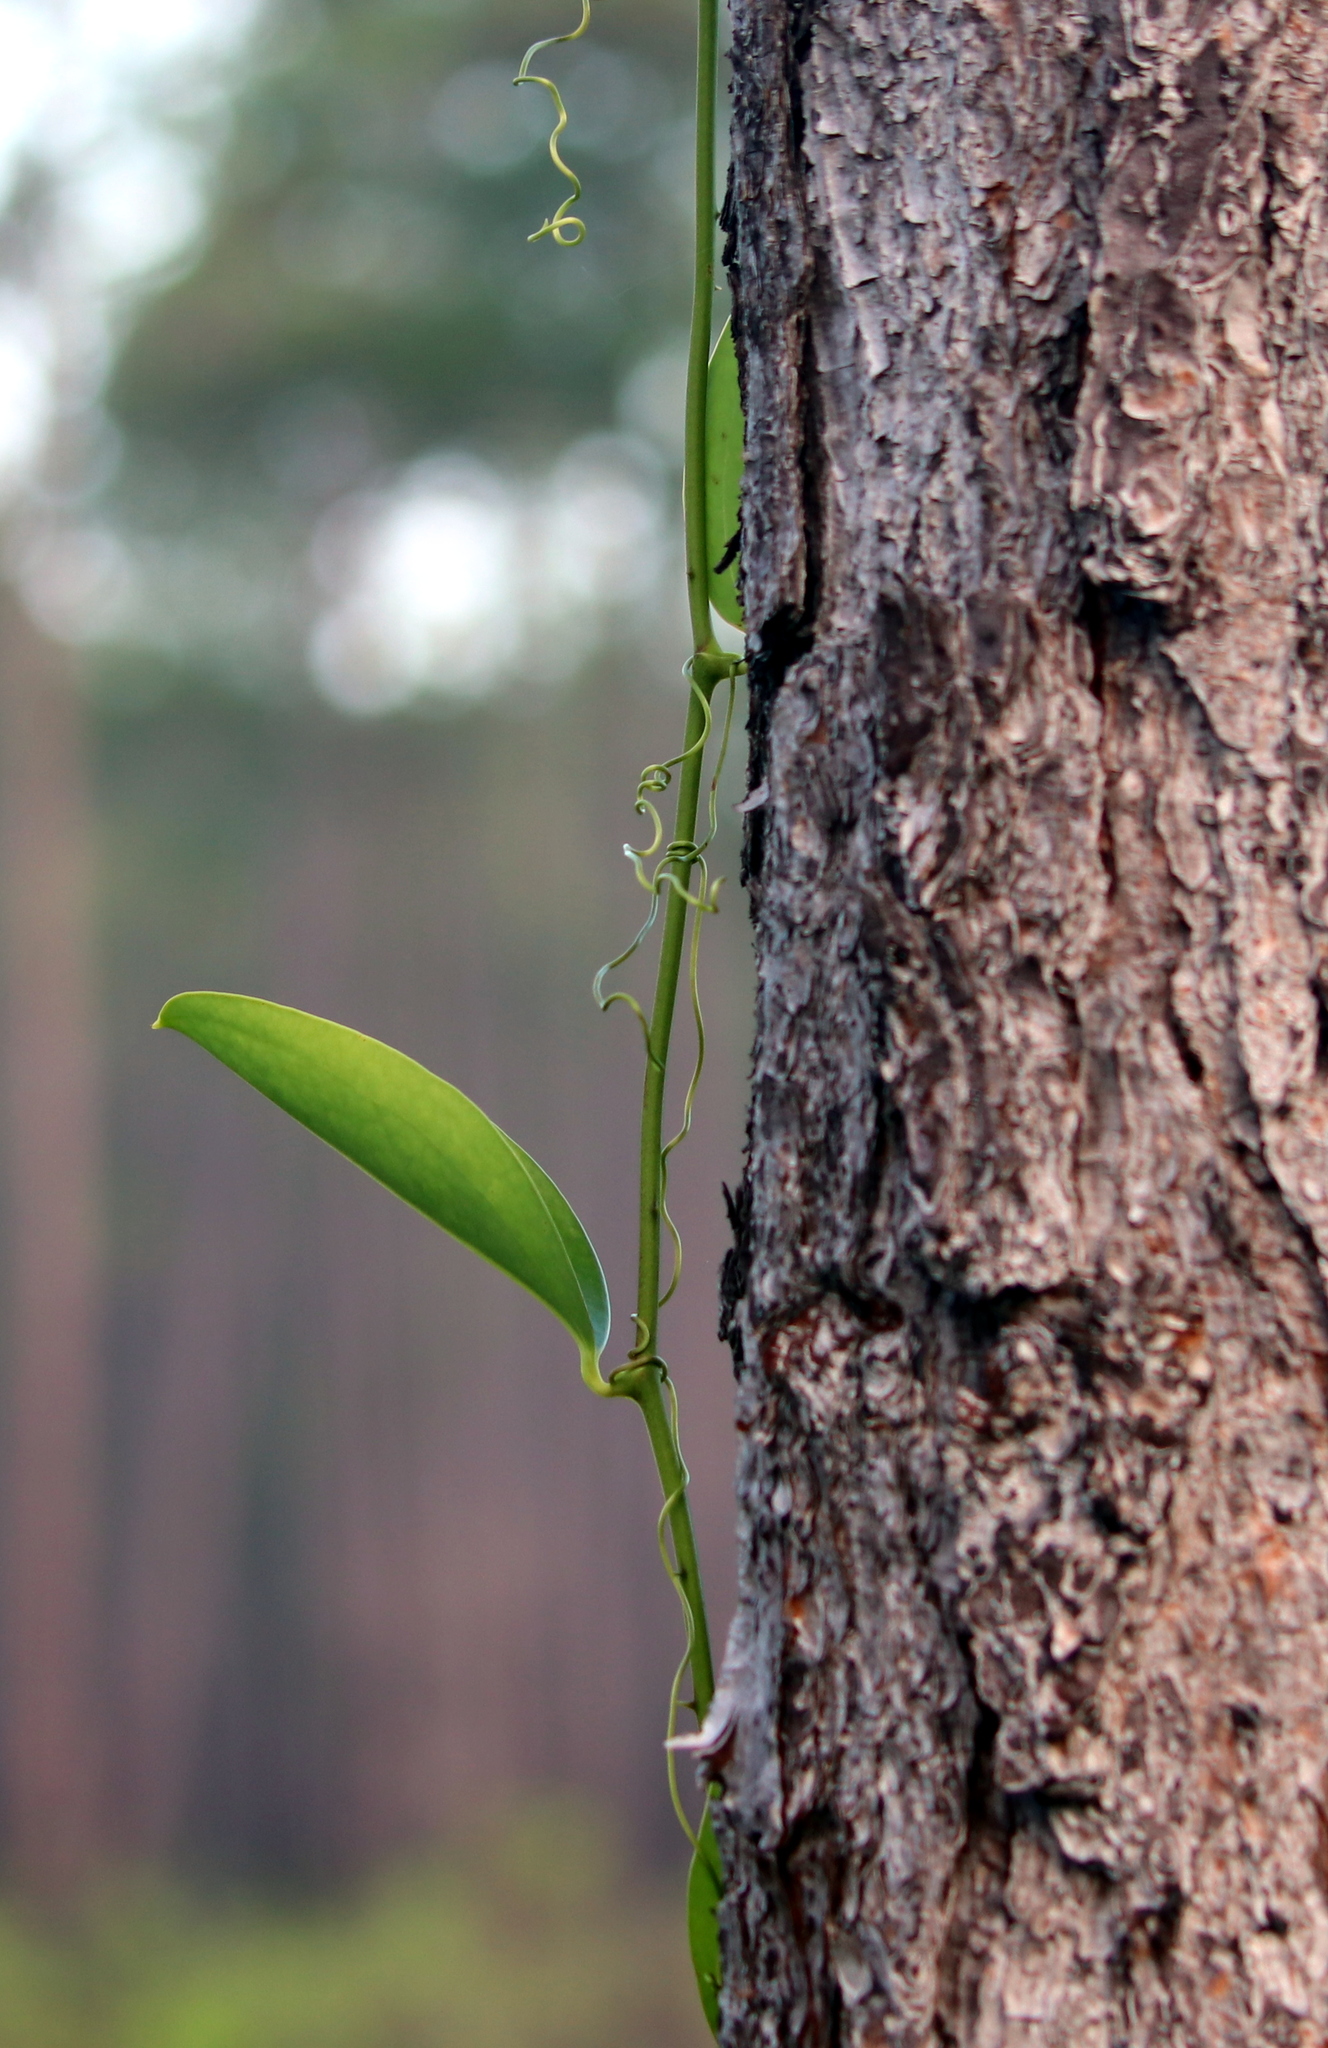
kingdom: Plantae
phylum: Tracheophyta
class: Liliopsida
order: Liliales
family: Smilacaceae
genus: Smilax
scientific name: Smilax laurifolia
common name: Bamboovine
